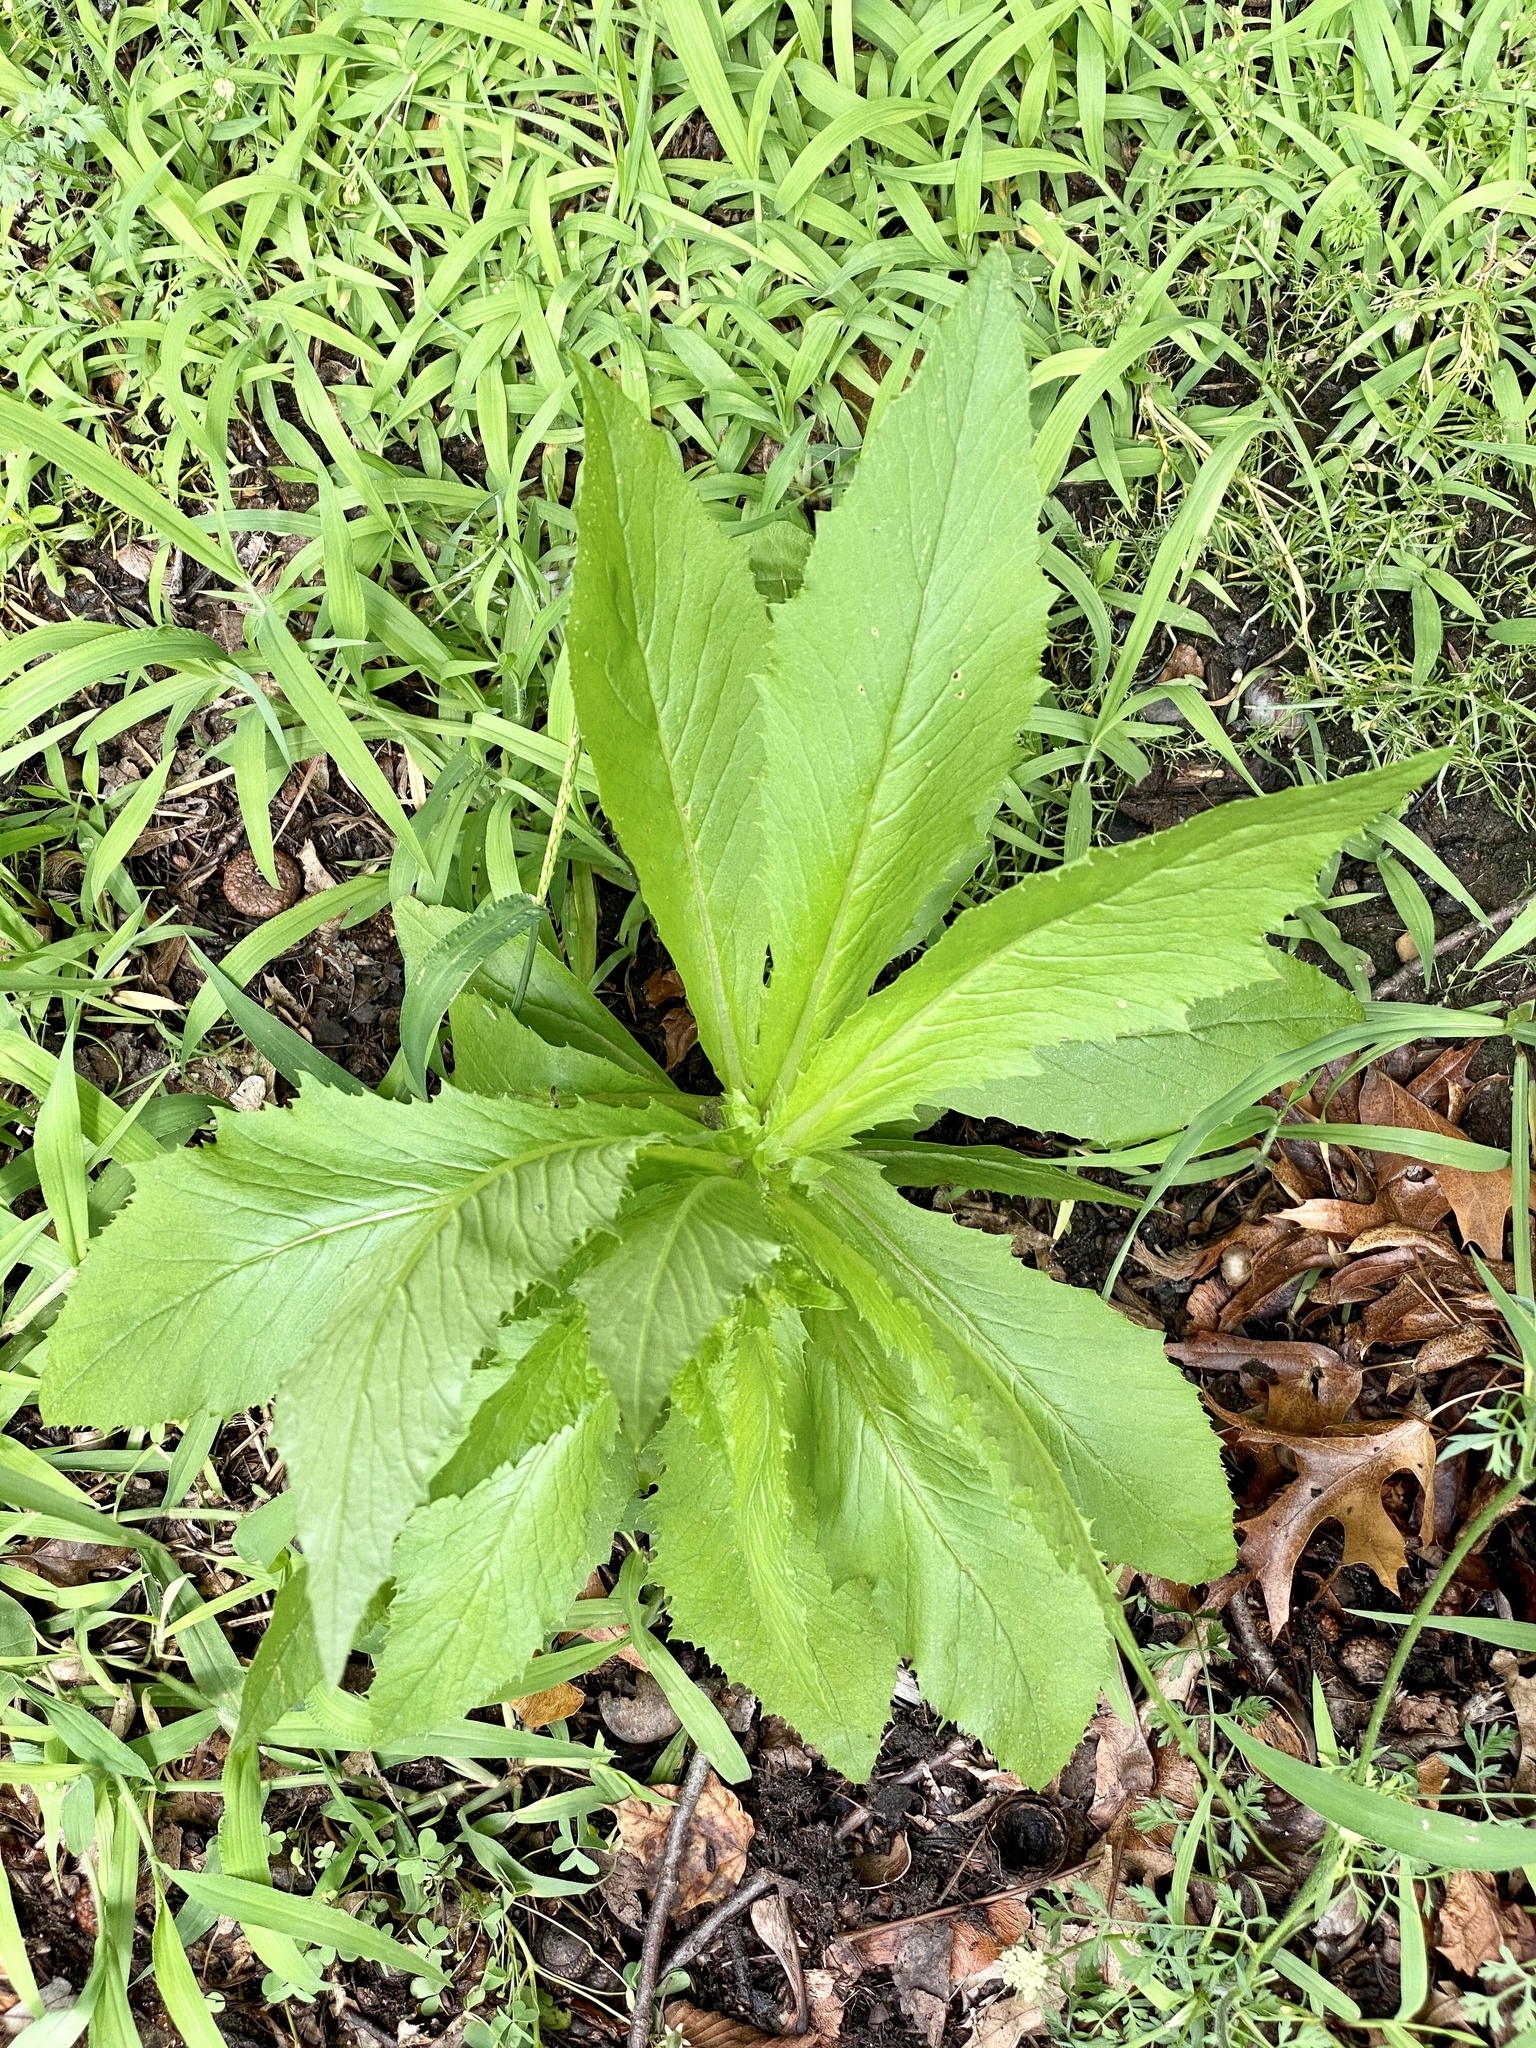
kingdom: Plantae
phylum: Tracheophyta
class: Magnoliopsida
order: Asterales
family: Asteraceae
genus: Erechtites
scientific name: Erechtites hieraciifolius
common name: American burnweed
